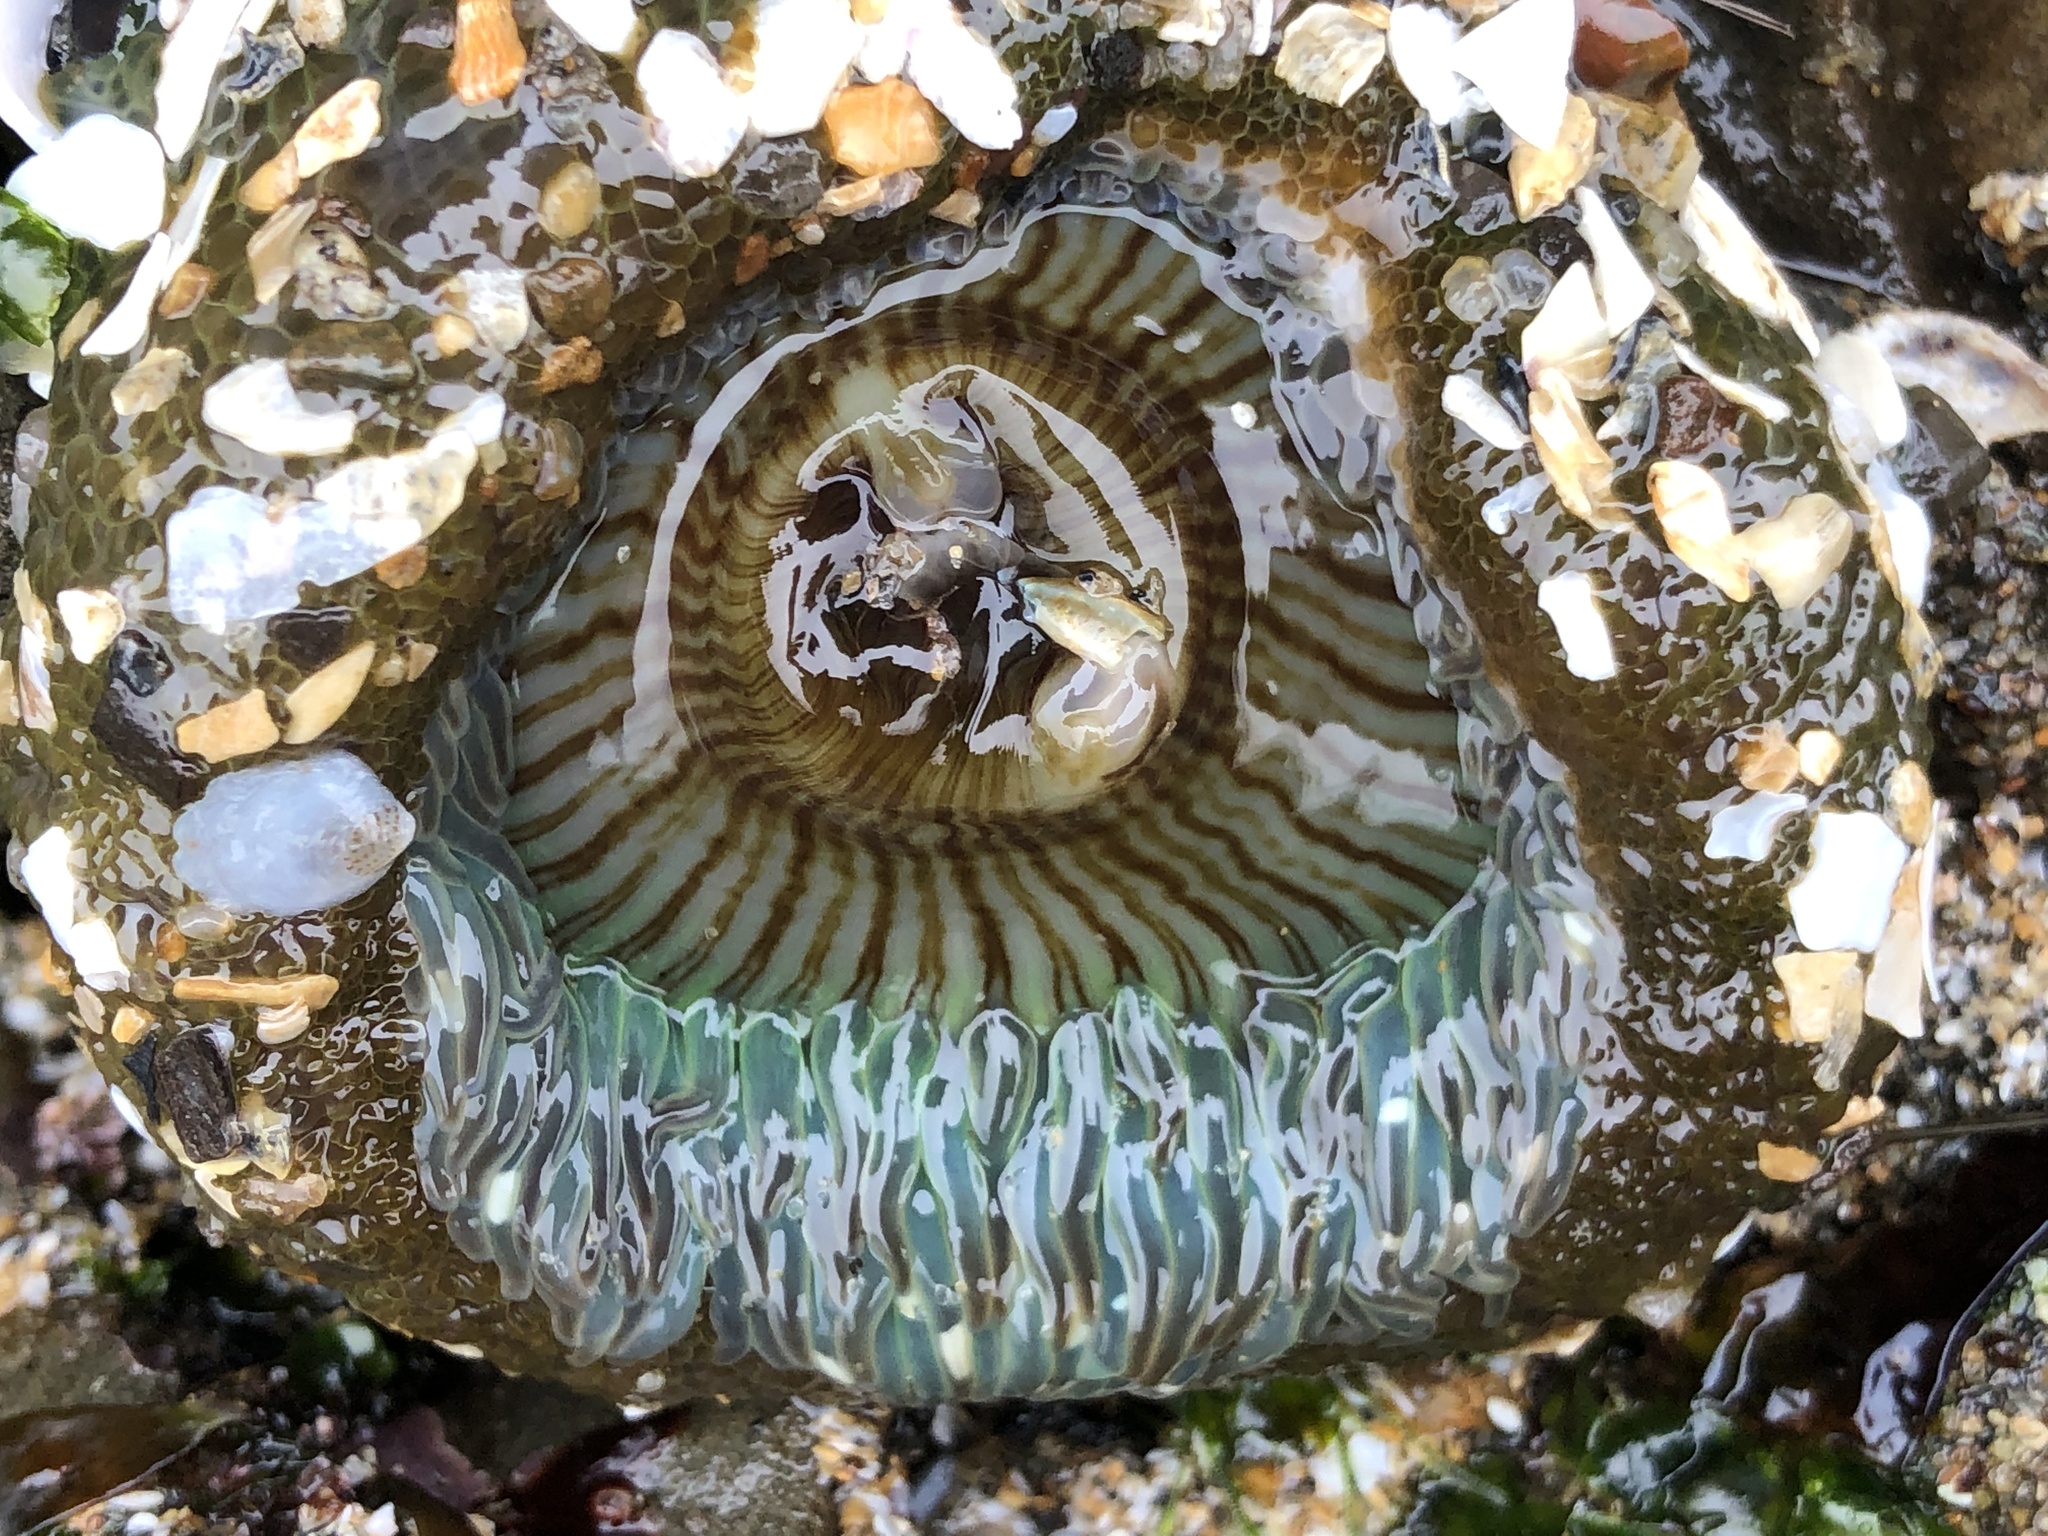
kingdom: Animalia
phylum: Cnidaria
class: Anthozoa
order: Actiniaria
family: Actiniidae
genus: Anthopleura
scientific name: Anthopleura sola
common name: Sun anemone
